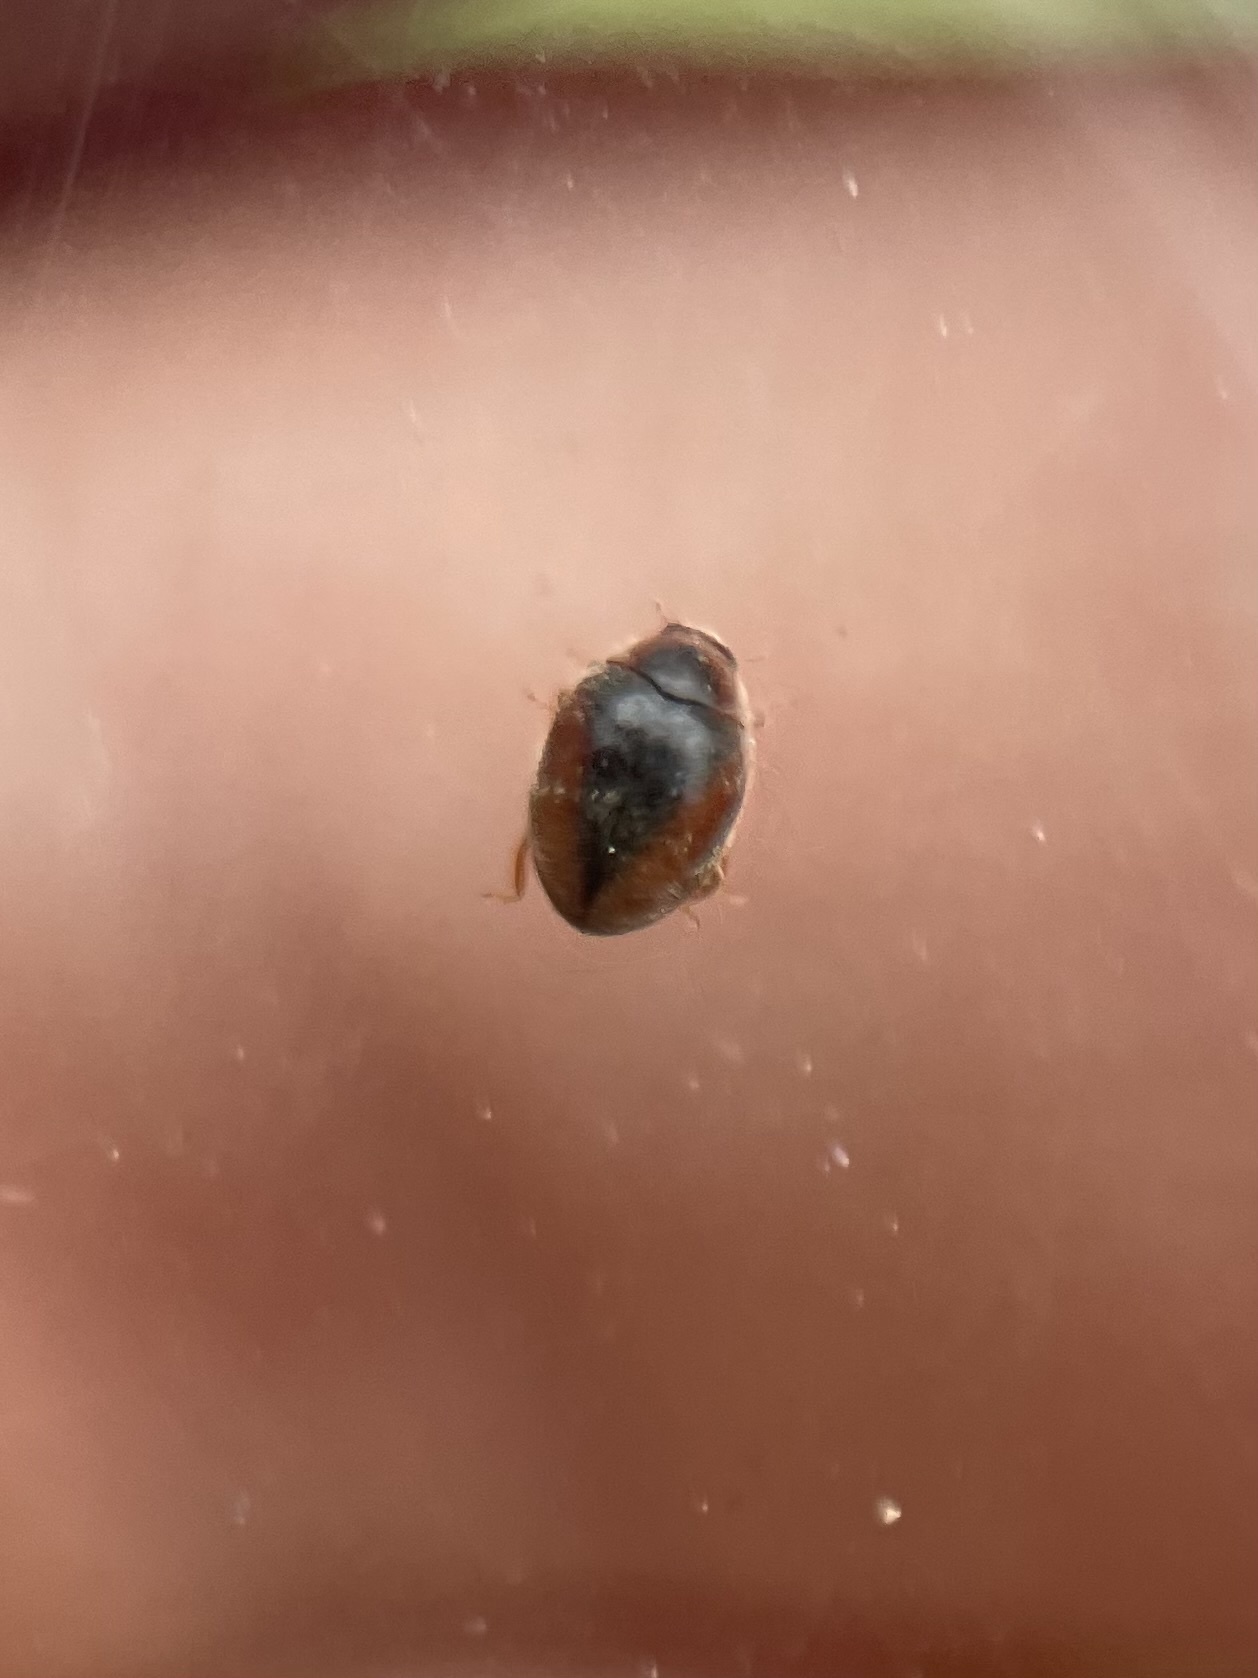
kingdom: Animalia
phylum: Arthropoda
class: Insecta
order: Coleoptera
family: Coccinellidae
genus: Scymnus
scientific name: Scymnus loewii
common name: Dusky lady beetle
